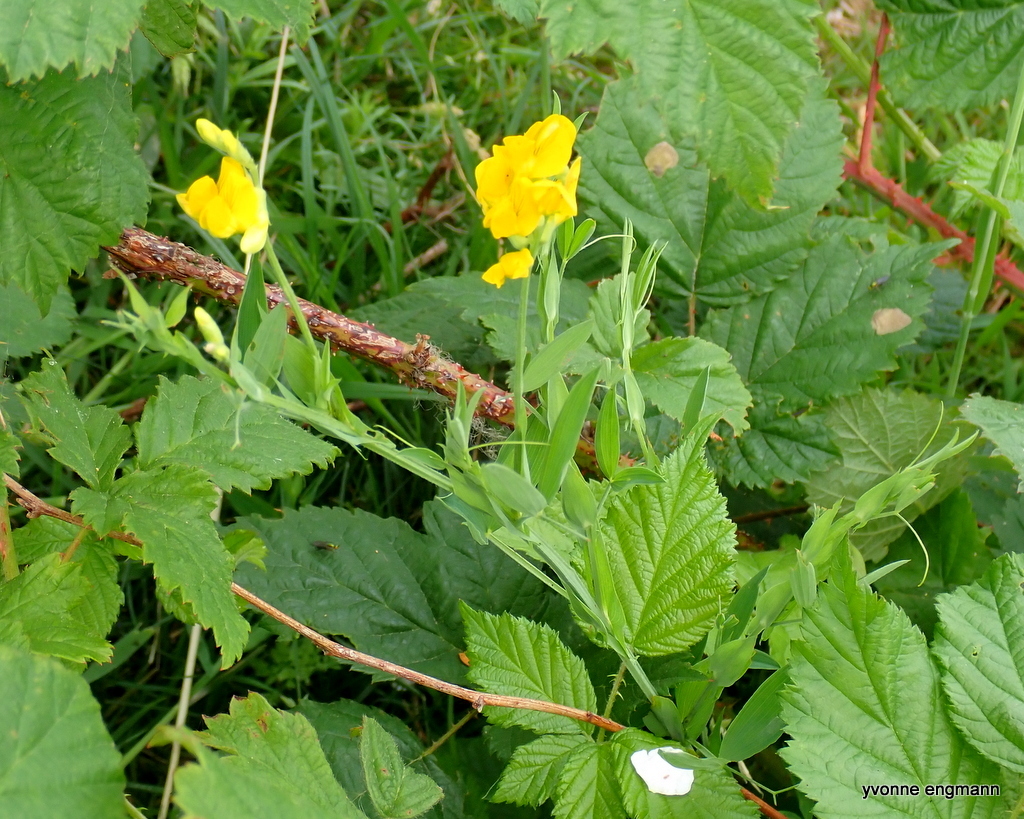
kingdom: Plantae
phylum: Tracheophyta
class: Magnoliopsida
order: Fabales
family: Fabaceae
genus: Lathyrus
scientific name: Lathyrus pratensis
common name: Meadow vetchling
